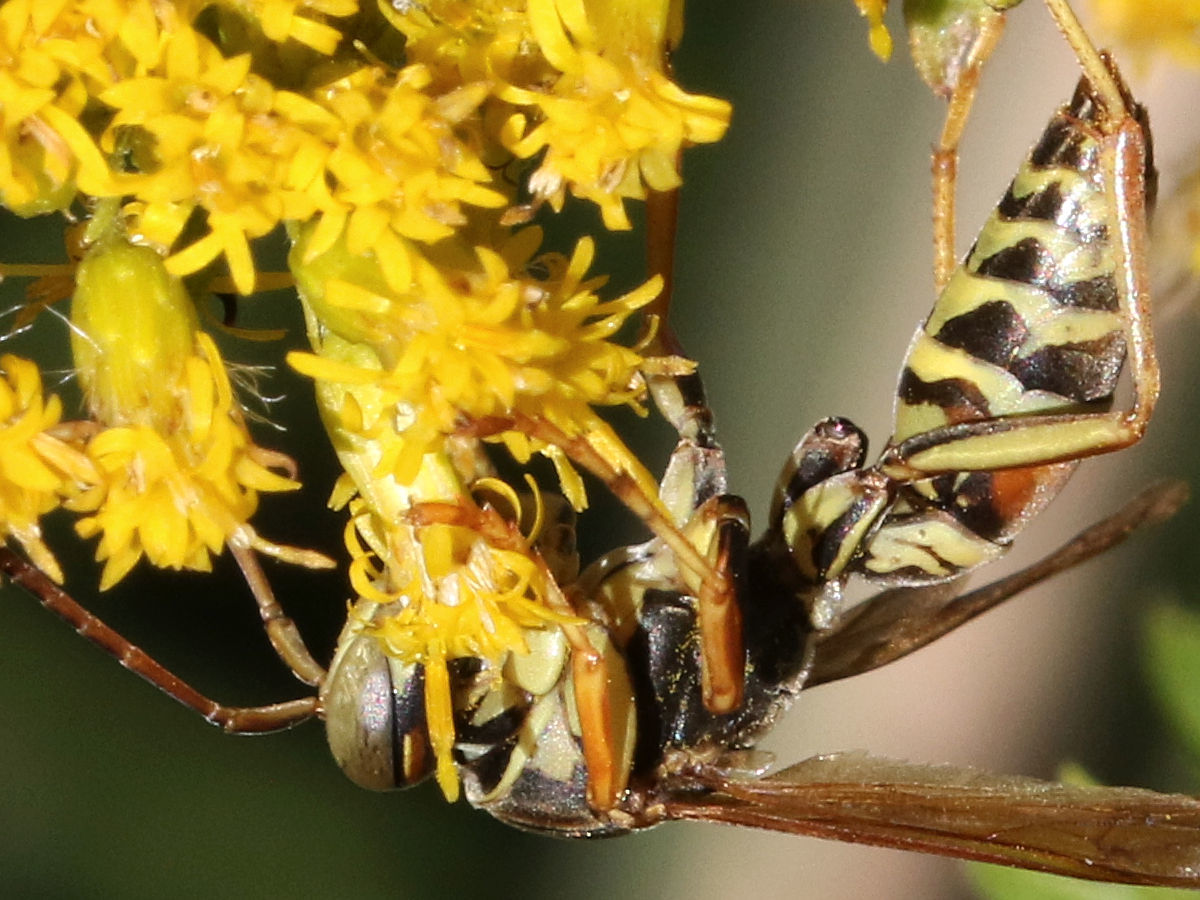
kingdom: Animalia
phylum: Arthropoda
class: Insecta
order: Hymenoptera
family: Eumenidae
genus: Polistes
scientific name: Polistes fuscatus
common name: Dark paper wasp
